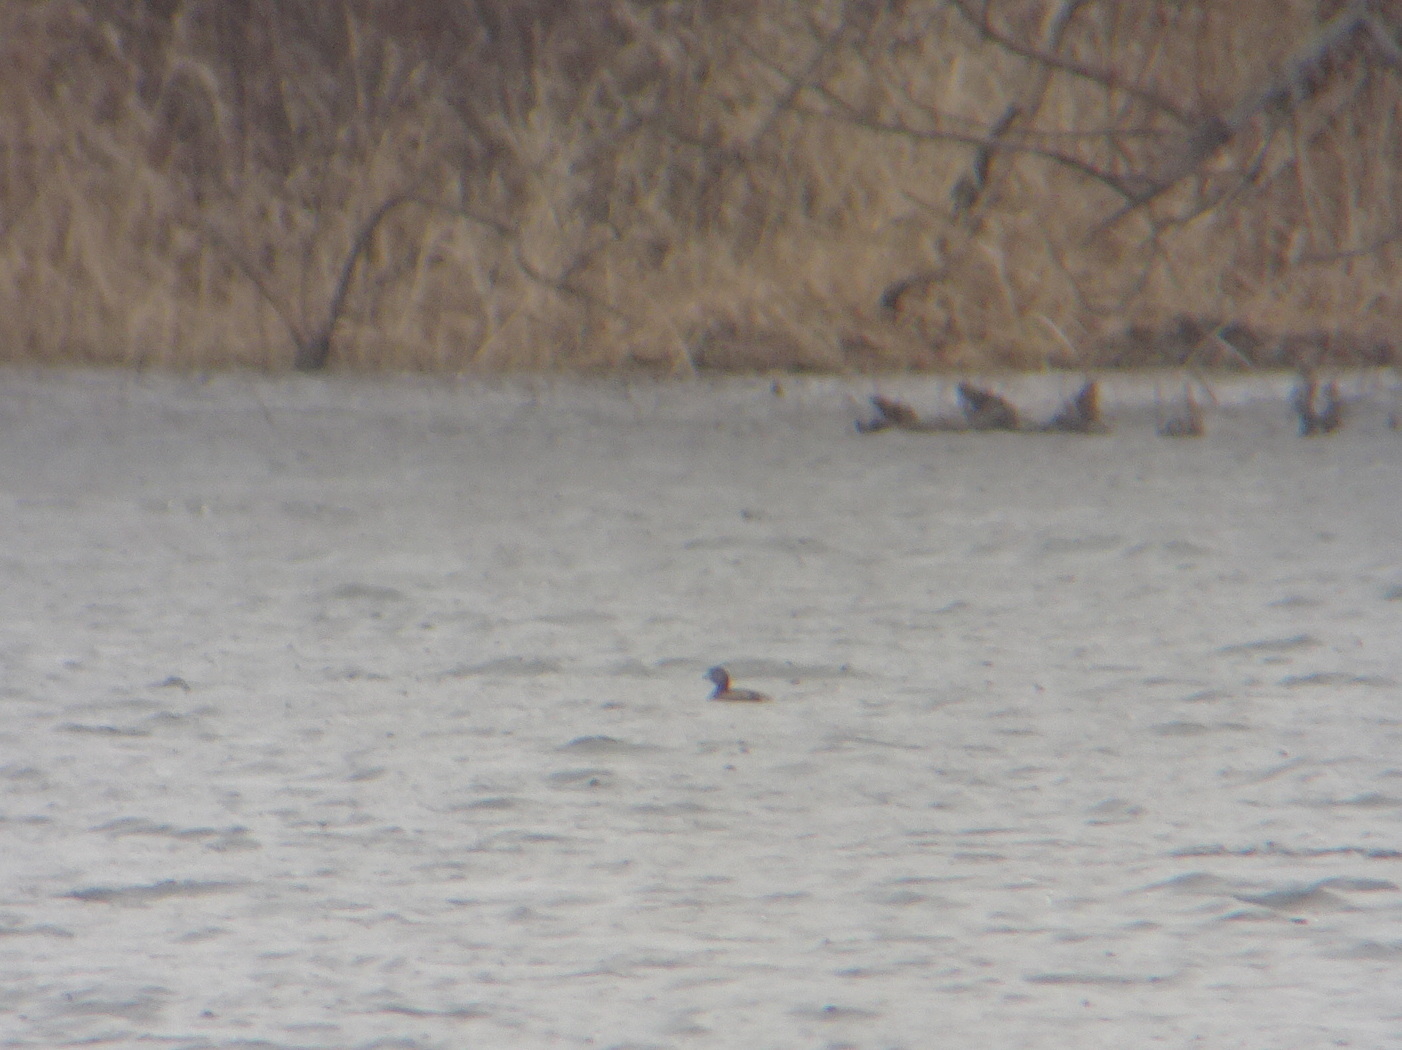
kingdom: Animalia
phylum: Chordata
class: Aves
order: Podicipediformes
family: Podicipedidae
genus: Podilymbus
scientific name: Podilymbus podiceps
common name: Pied-billed grebe
